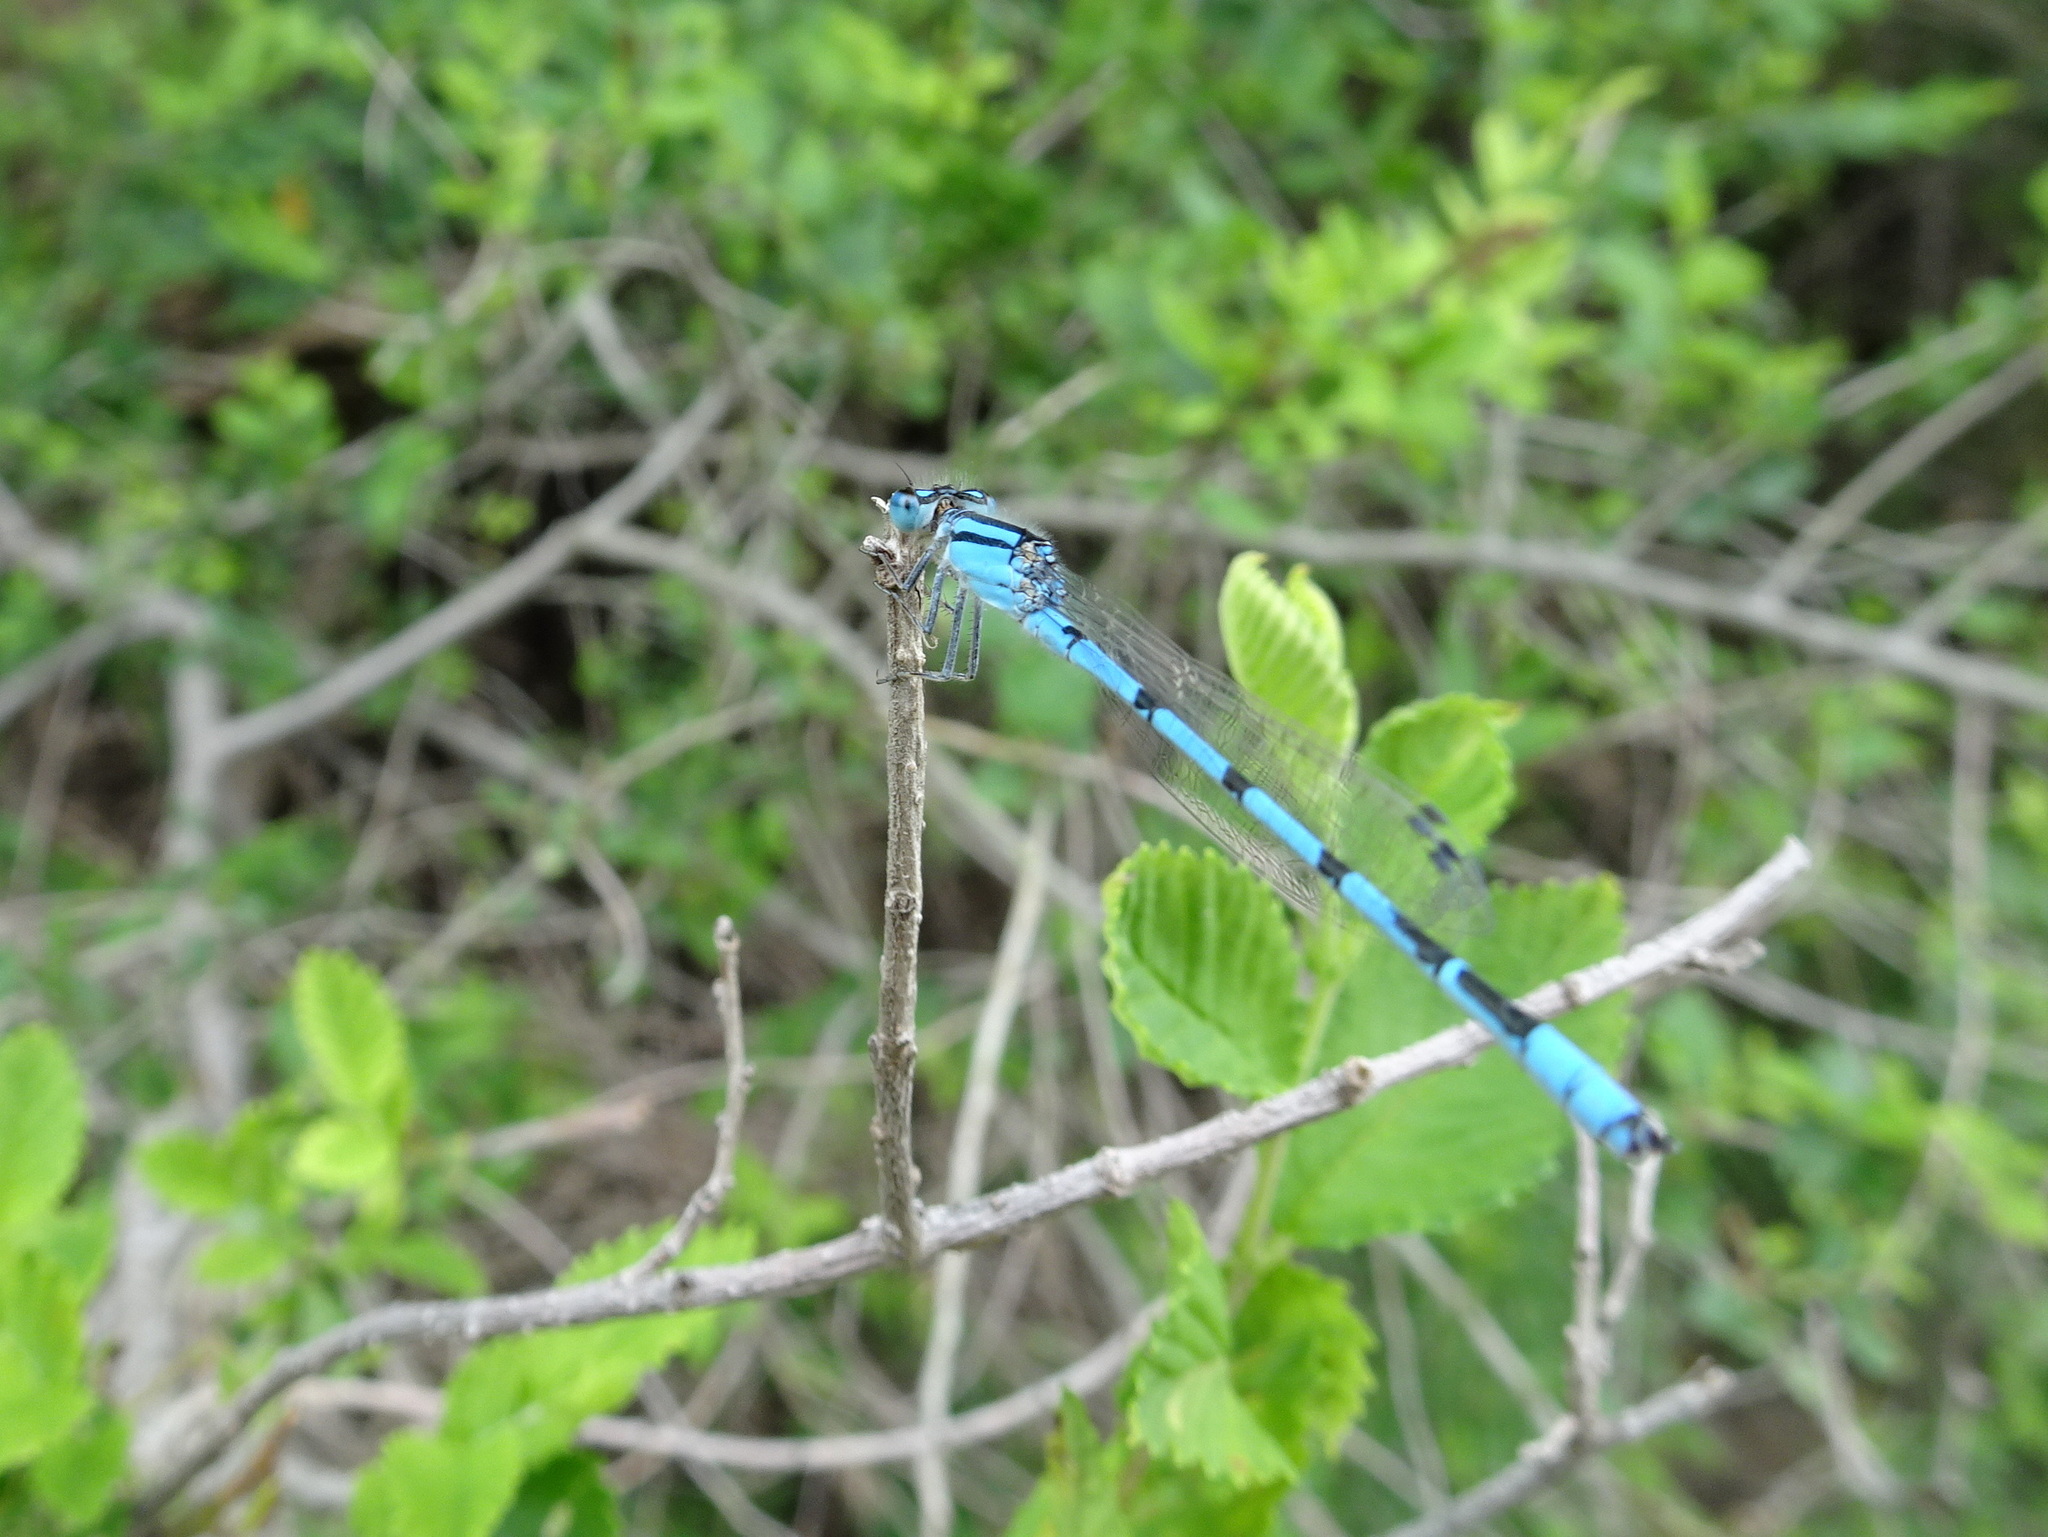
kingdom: Animalia
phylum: Arthropoda
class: Insecta
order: Odonata
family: Coenagrionidae
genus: Enallagma
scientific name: Enallagma civile
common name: Damselfly
